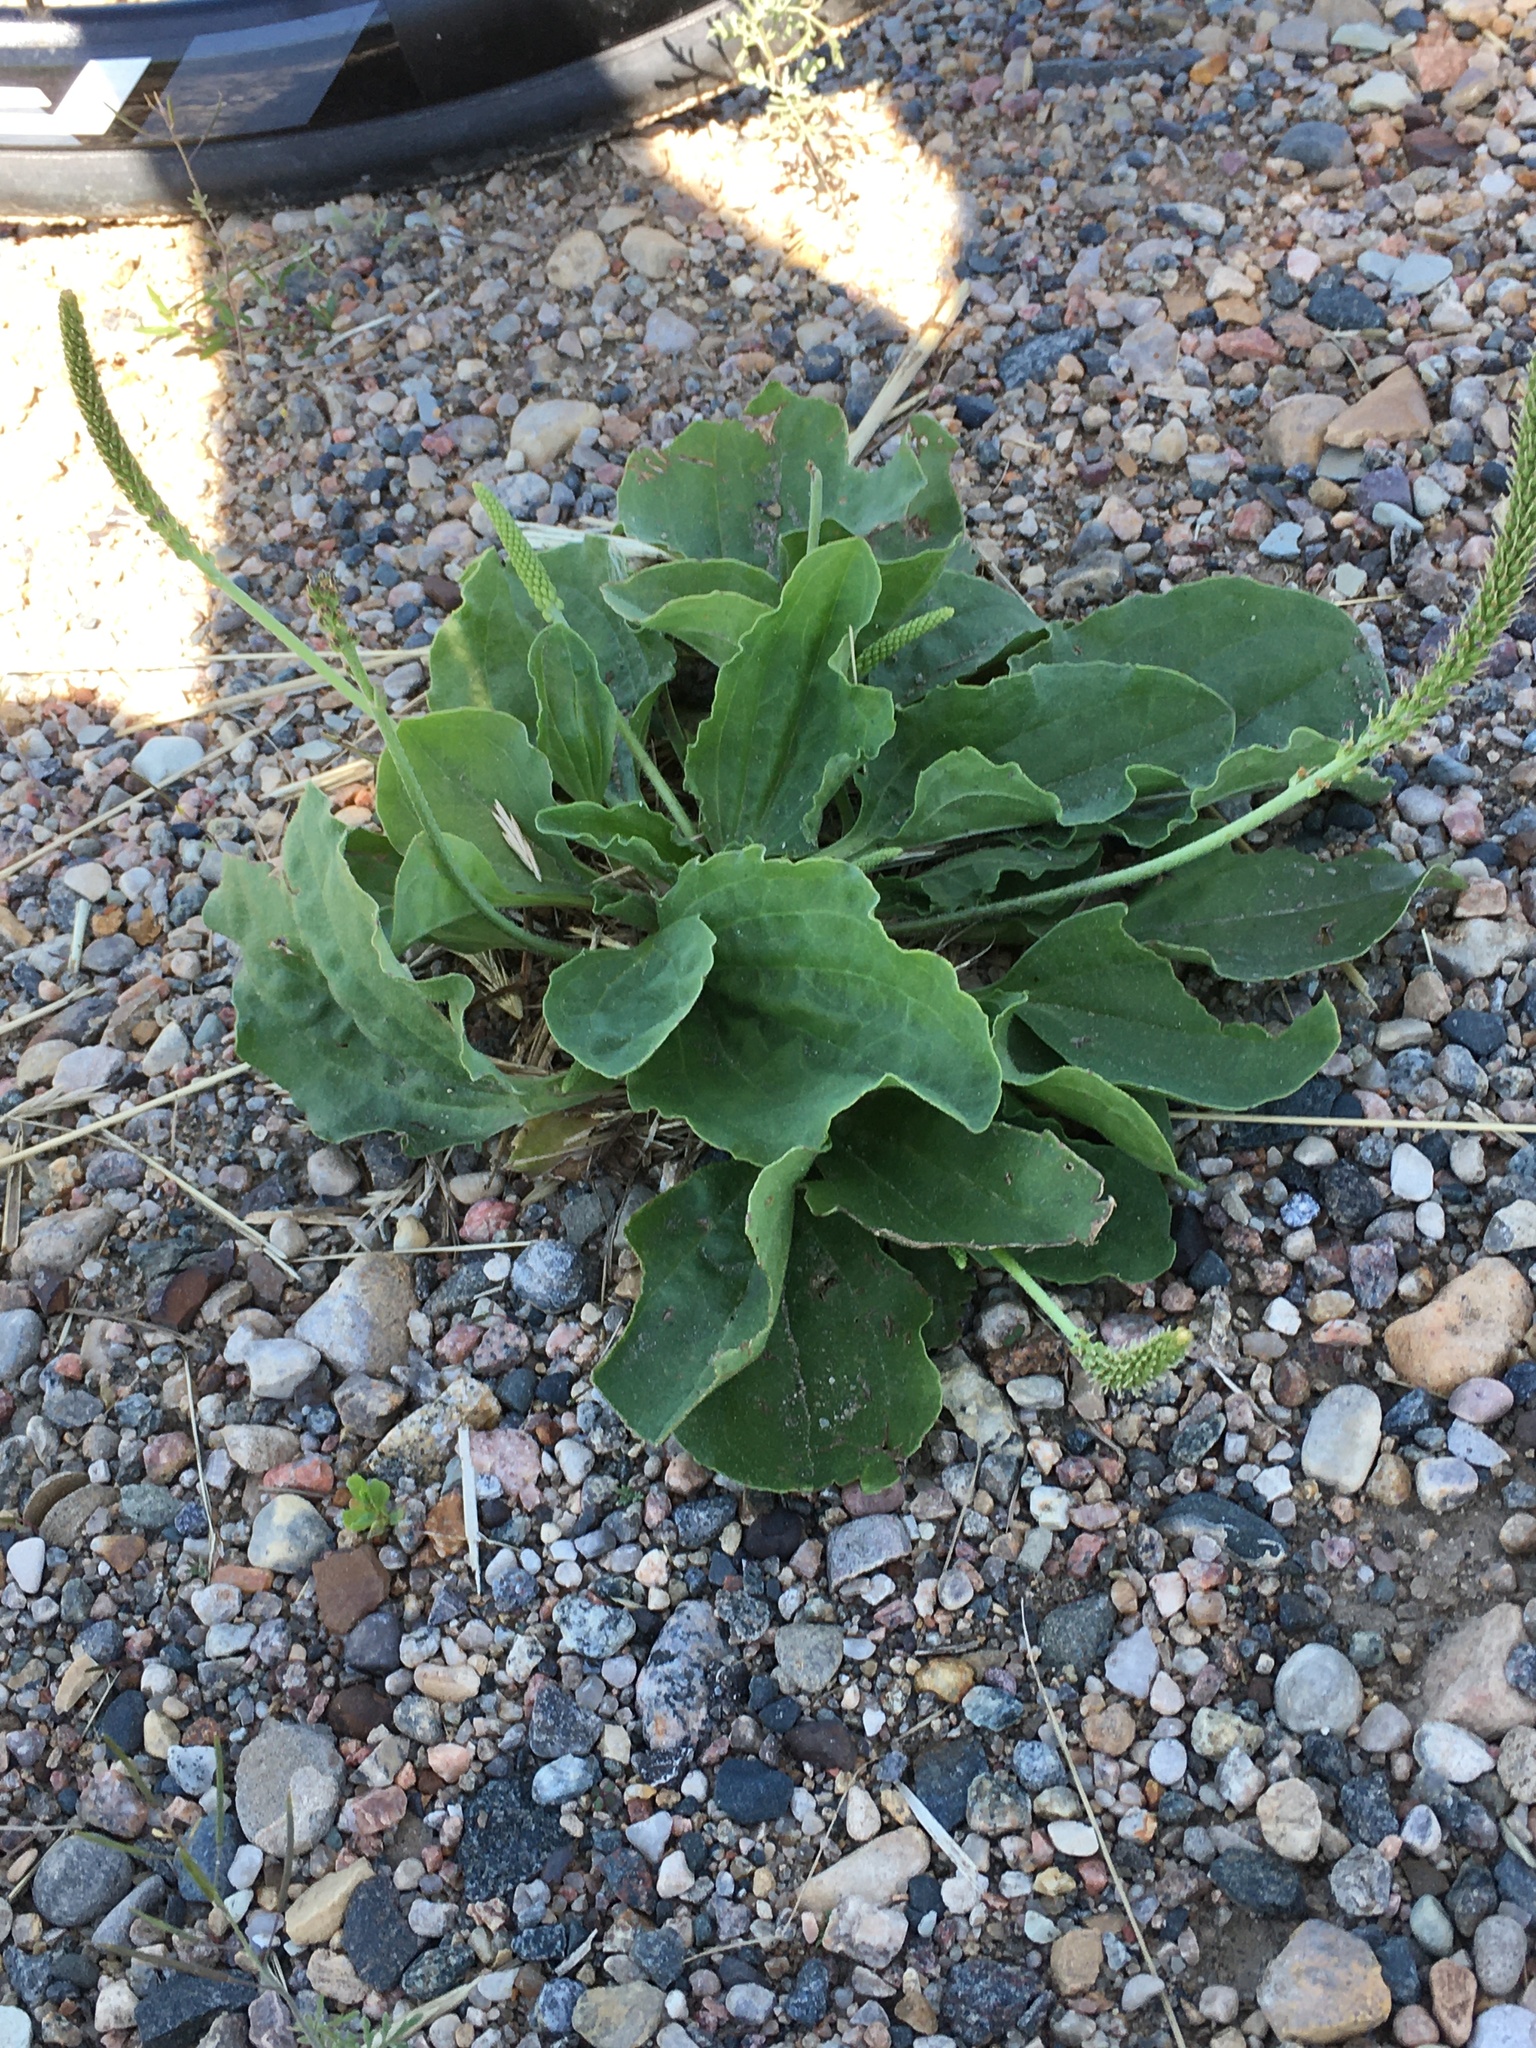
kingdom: Plantae
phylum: Tracheophyta
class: Magnoliopsida
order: Lamiales
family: Plantaginaceae
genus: Plantago
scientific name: Plantago major
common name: Common plantain
